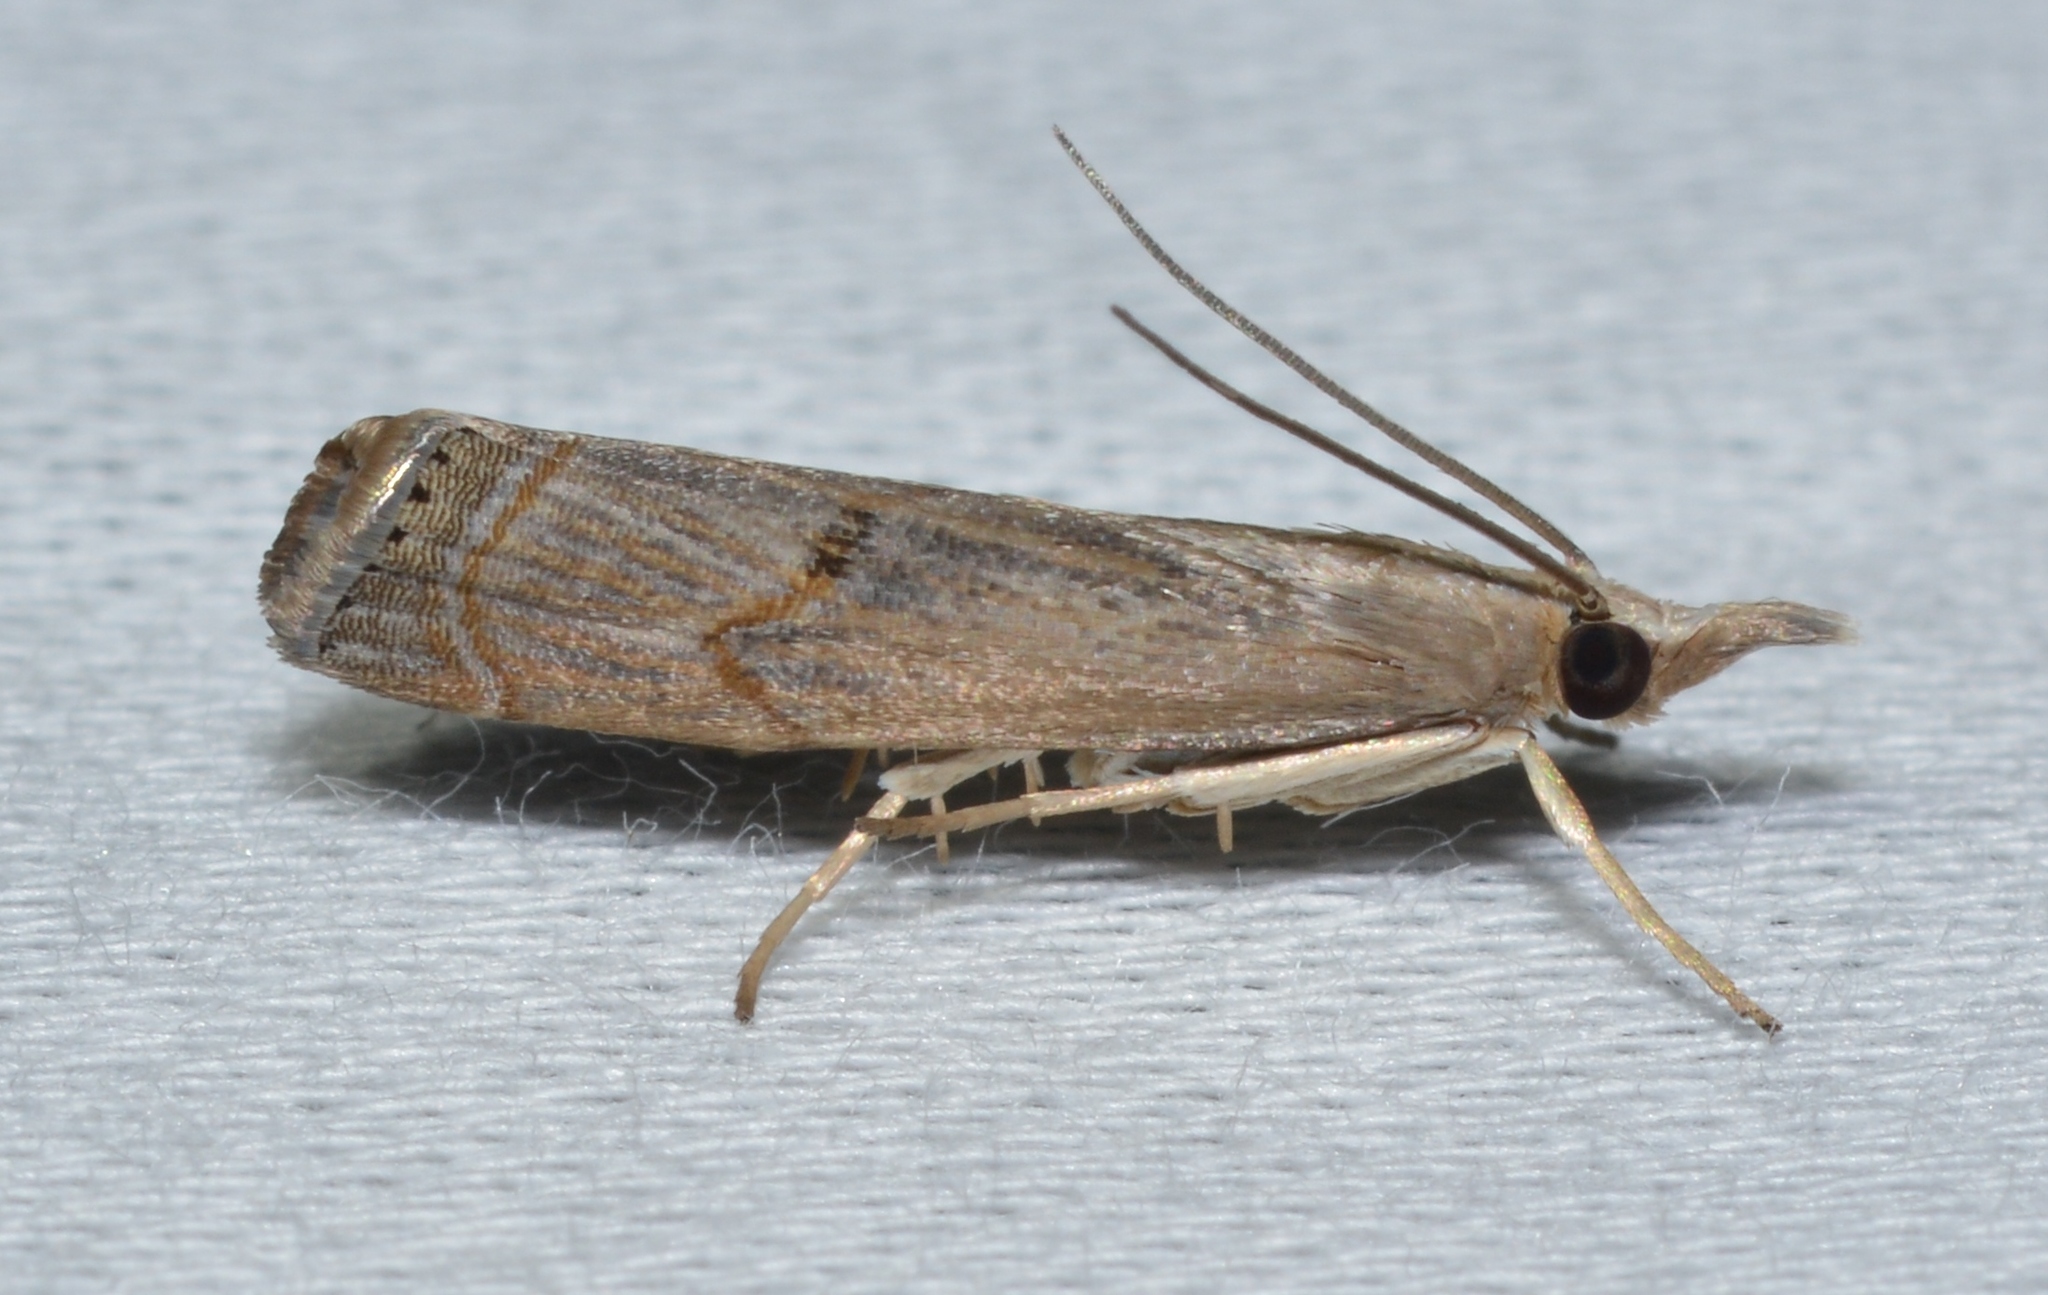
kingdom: Animalia
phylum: Arthropoda
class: Insecta
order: Lepidoptera
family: Crambidae
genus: Parapediasia
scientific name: Parapediasia teterellus
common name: Bluegrass webworm moth
